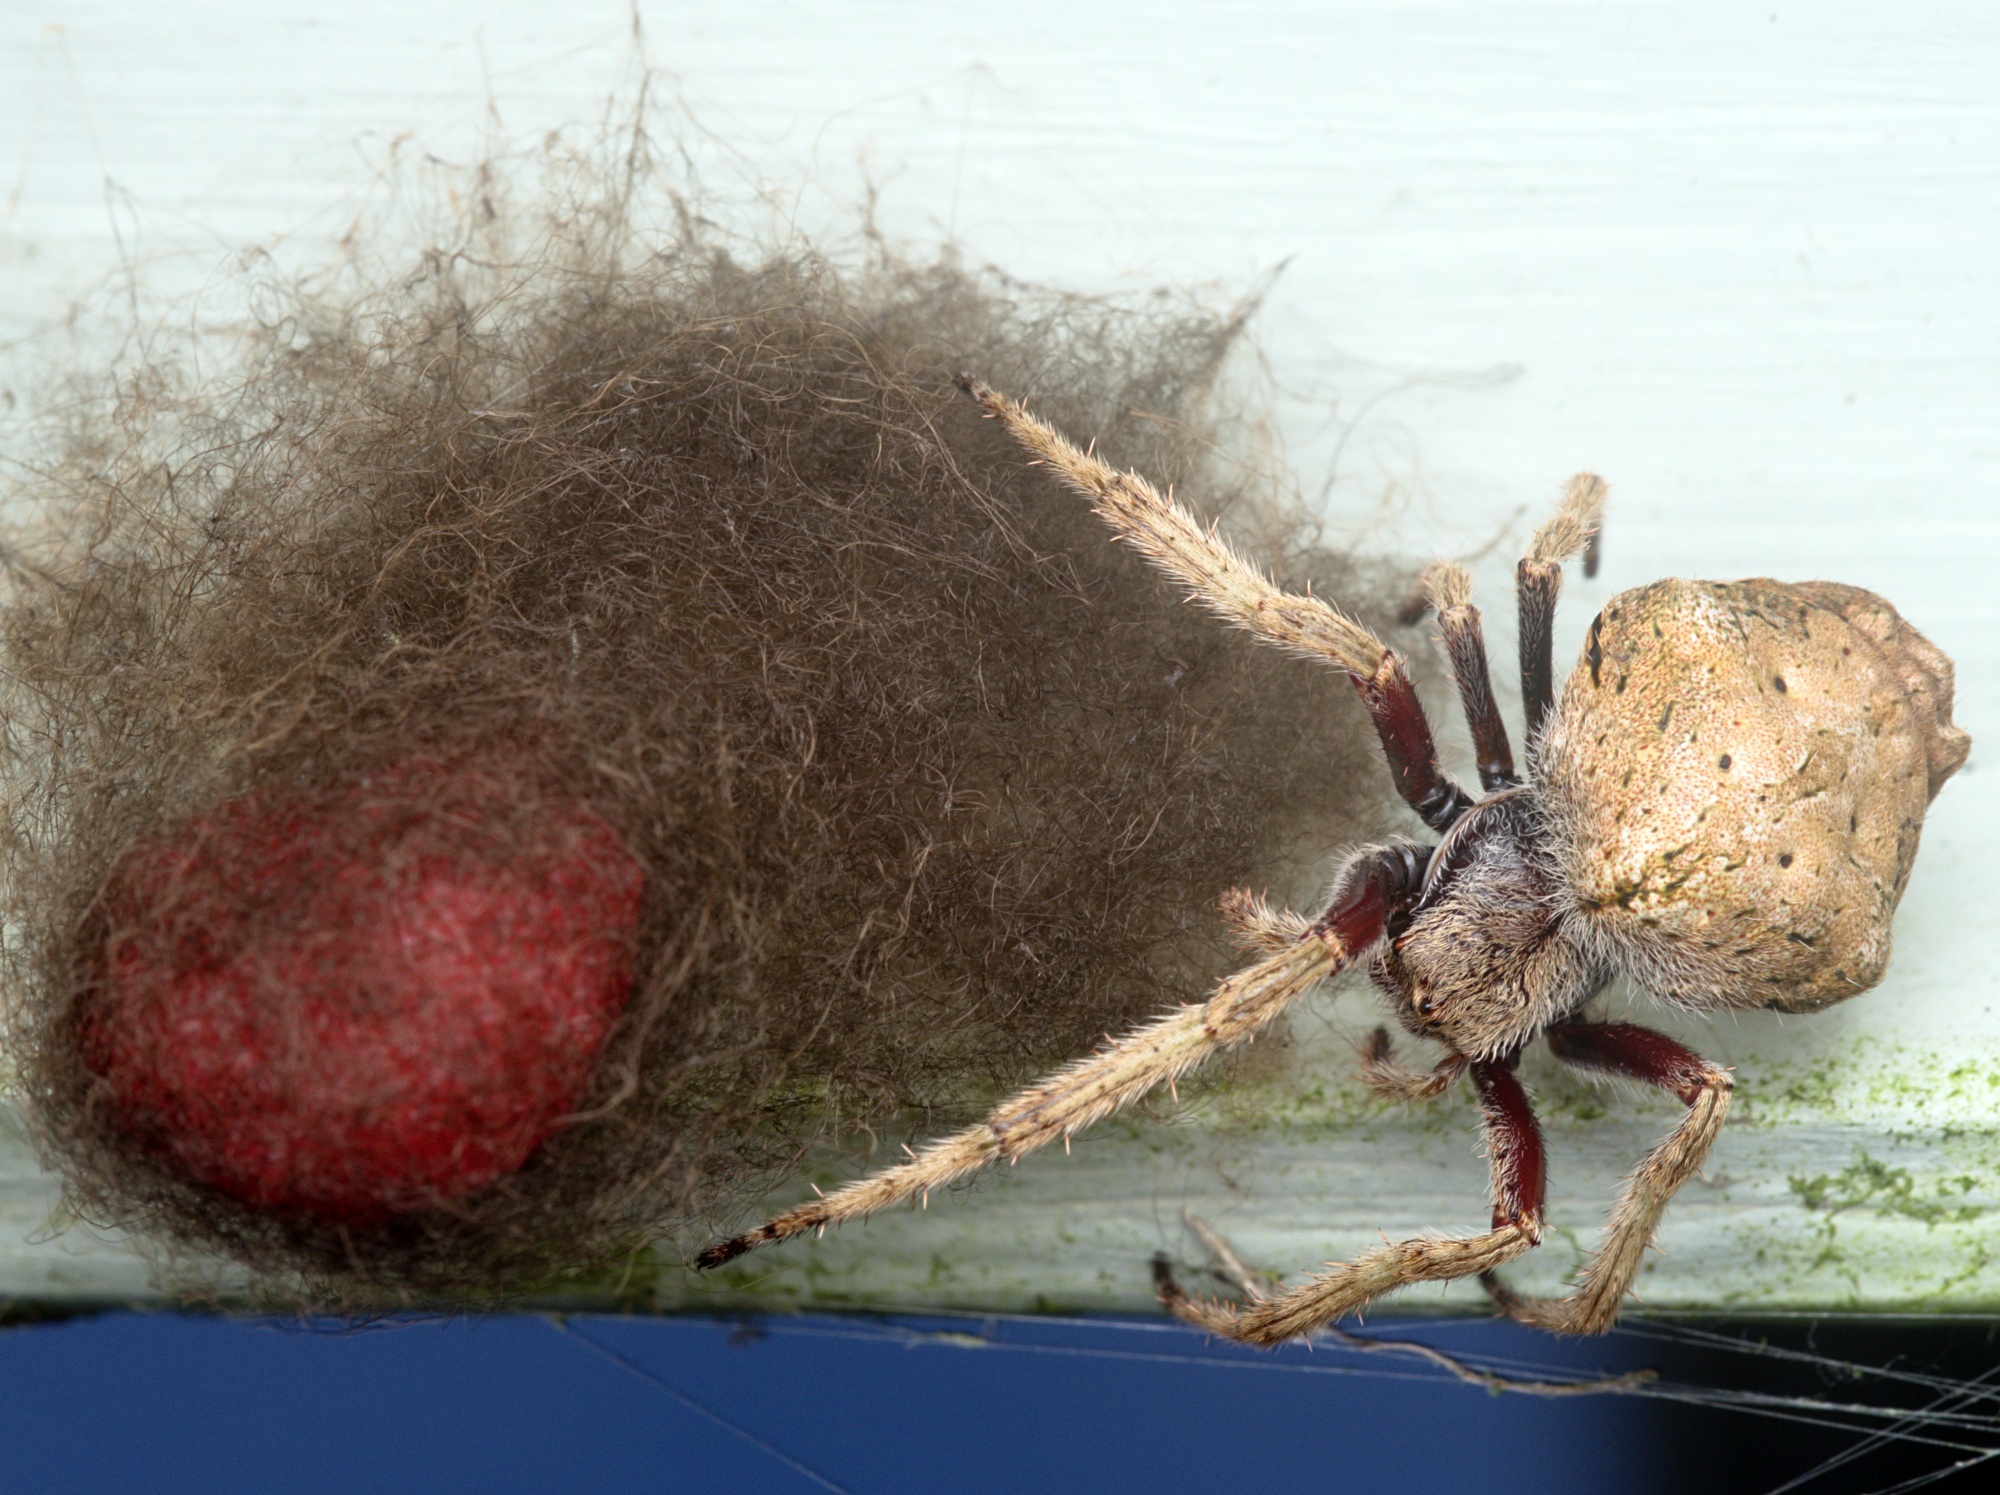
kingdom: Animalia
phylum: Arthropoda
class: Arachnida
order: Araneae
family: Araneidae
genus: Eriophora
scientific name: Eriophora pustulosa
